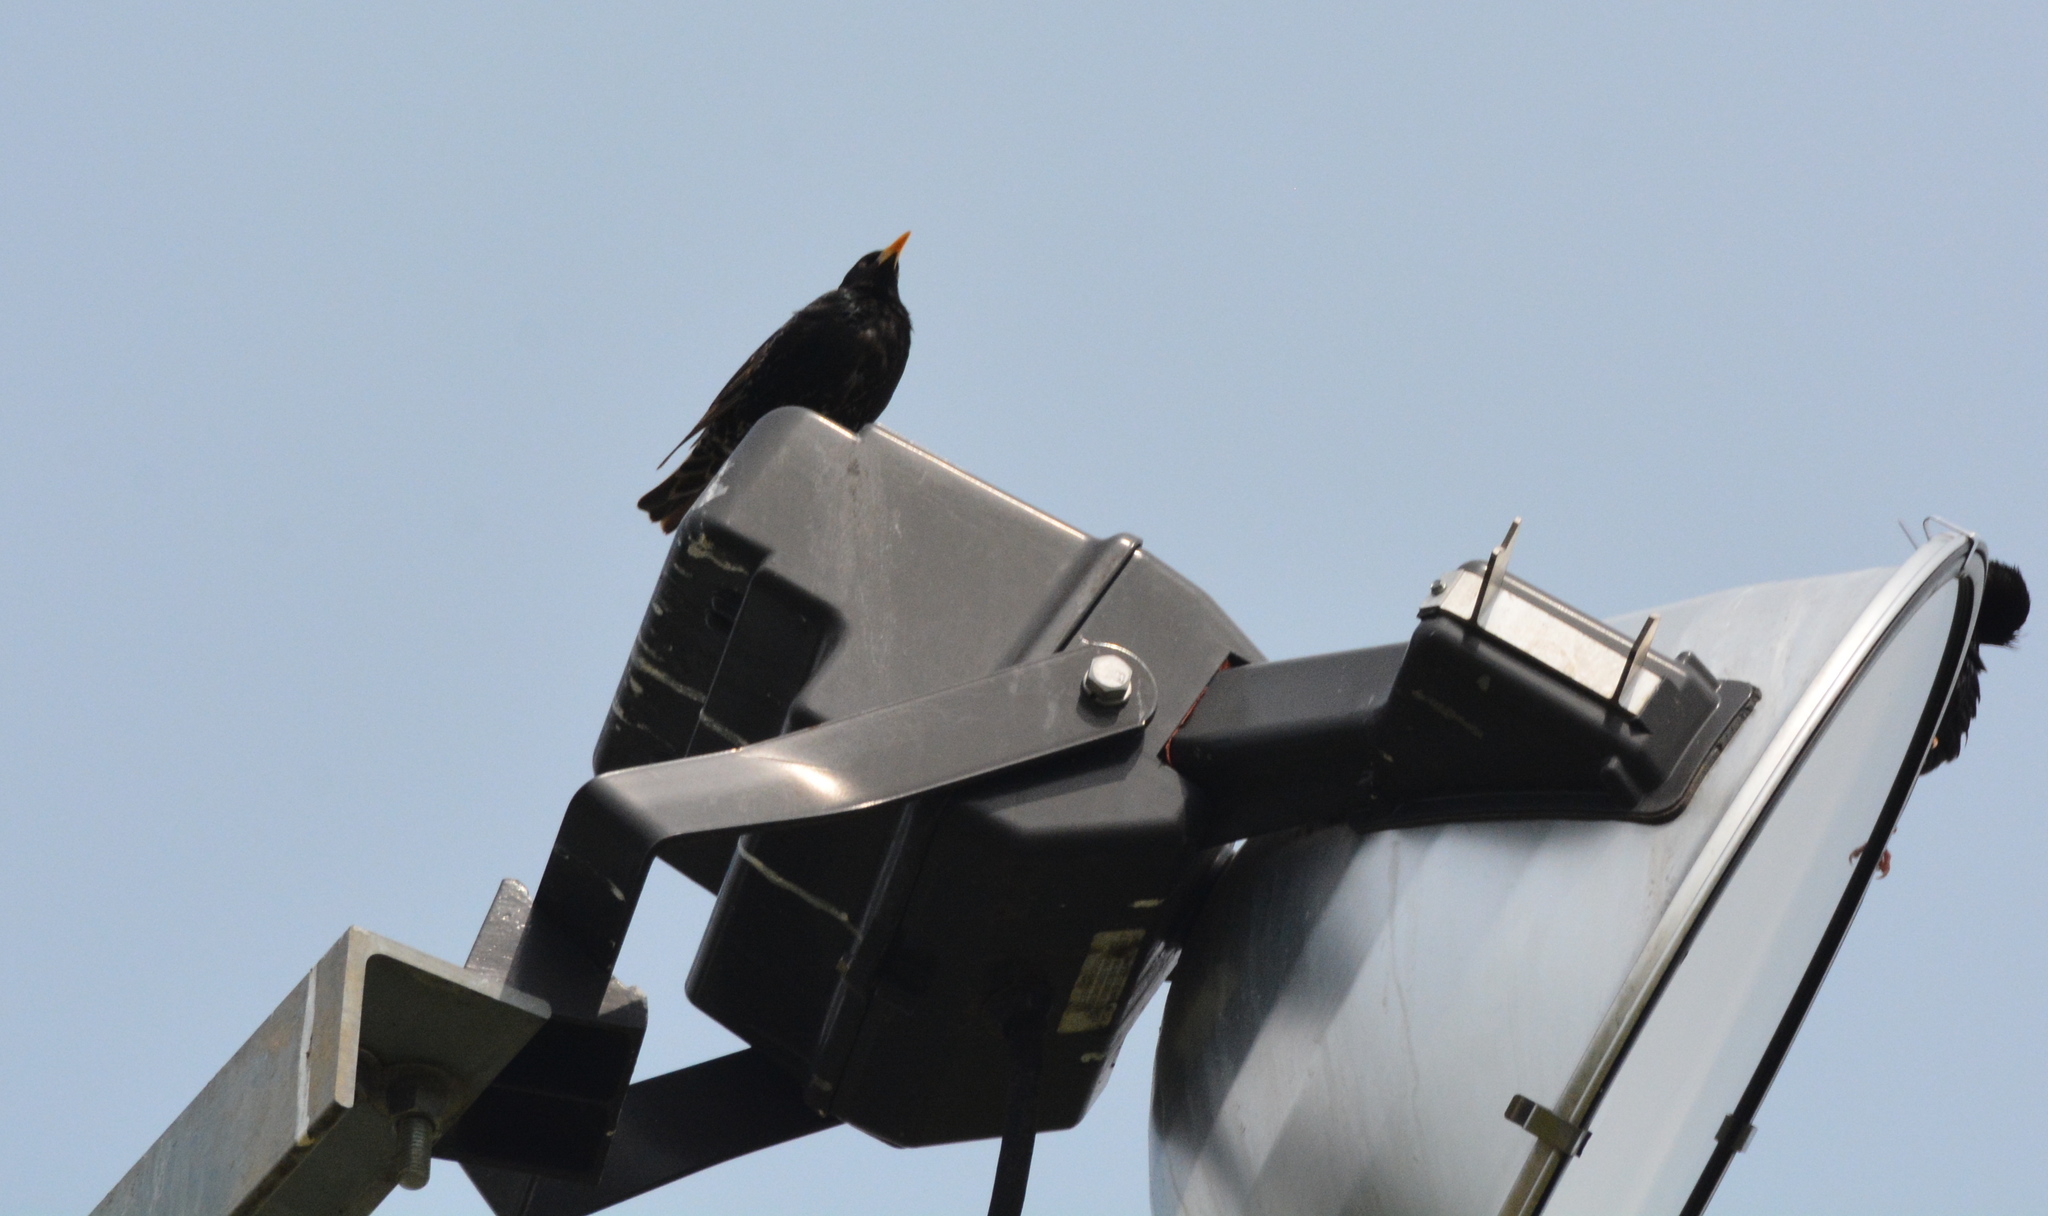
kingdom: Animalia
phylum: Chordata
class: Aves
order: Passeriformes
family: Sturnidae
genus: Sturnus
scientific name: Sturnus vulgaris
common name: Common starling
